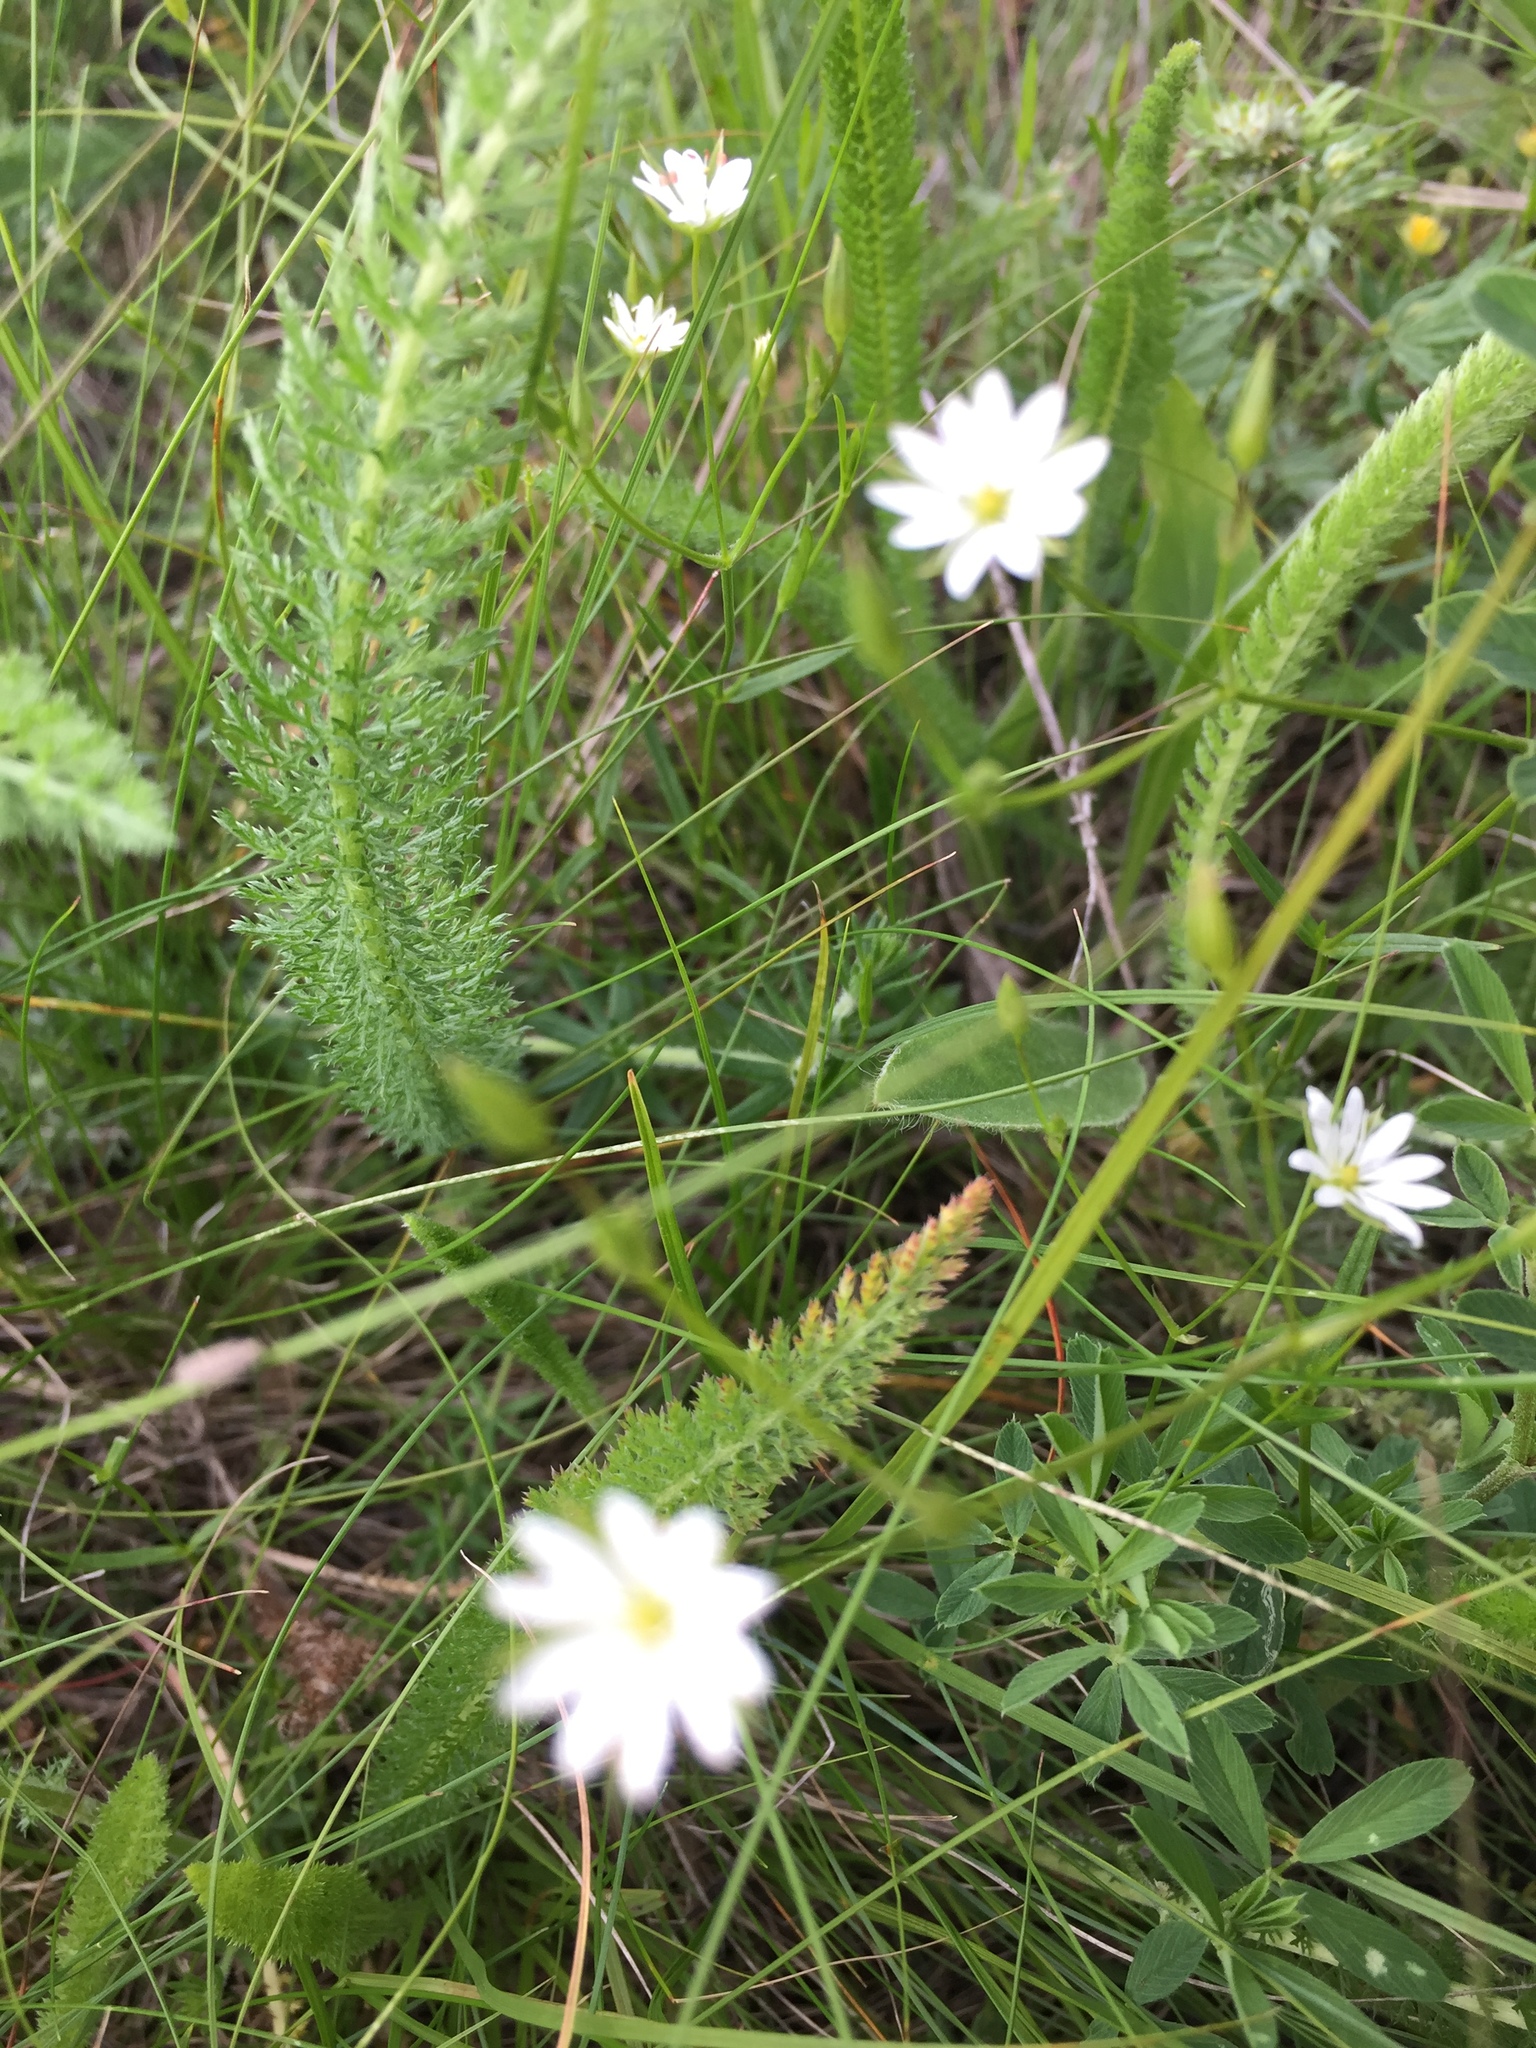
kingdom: Plantae
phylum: Tracheophyta
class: Magnoliopsida
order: Caryophyllales
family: Caryophyllaceae
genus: Stellaria
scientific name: Stellaria graminea
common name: Grass-like starwort
